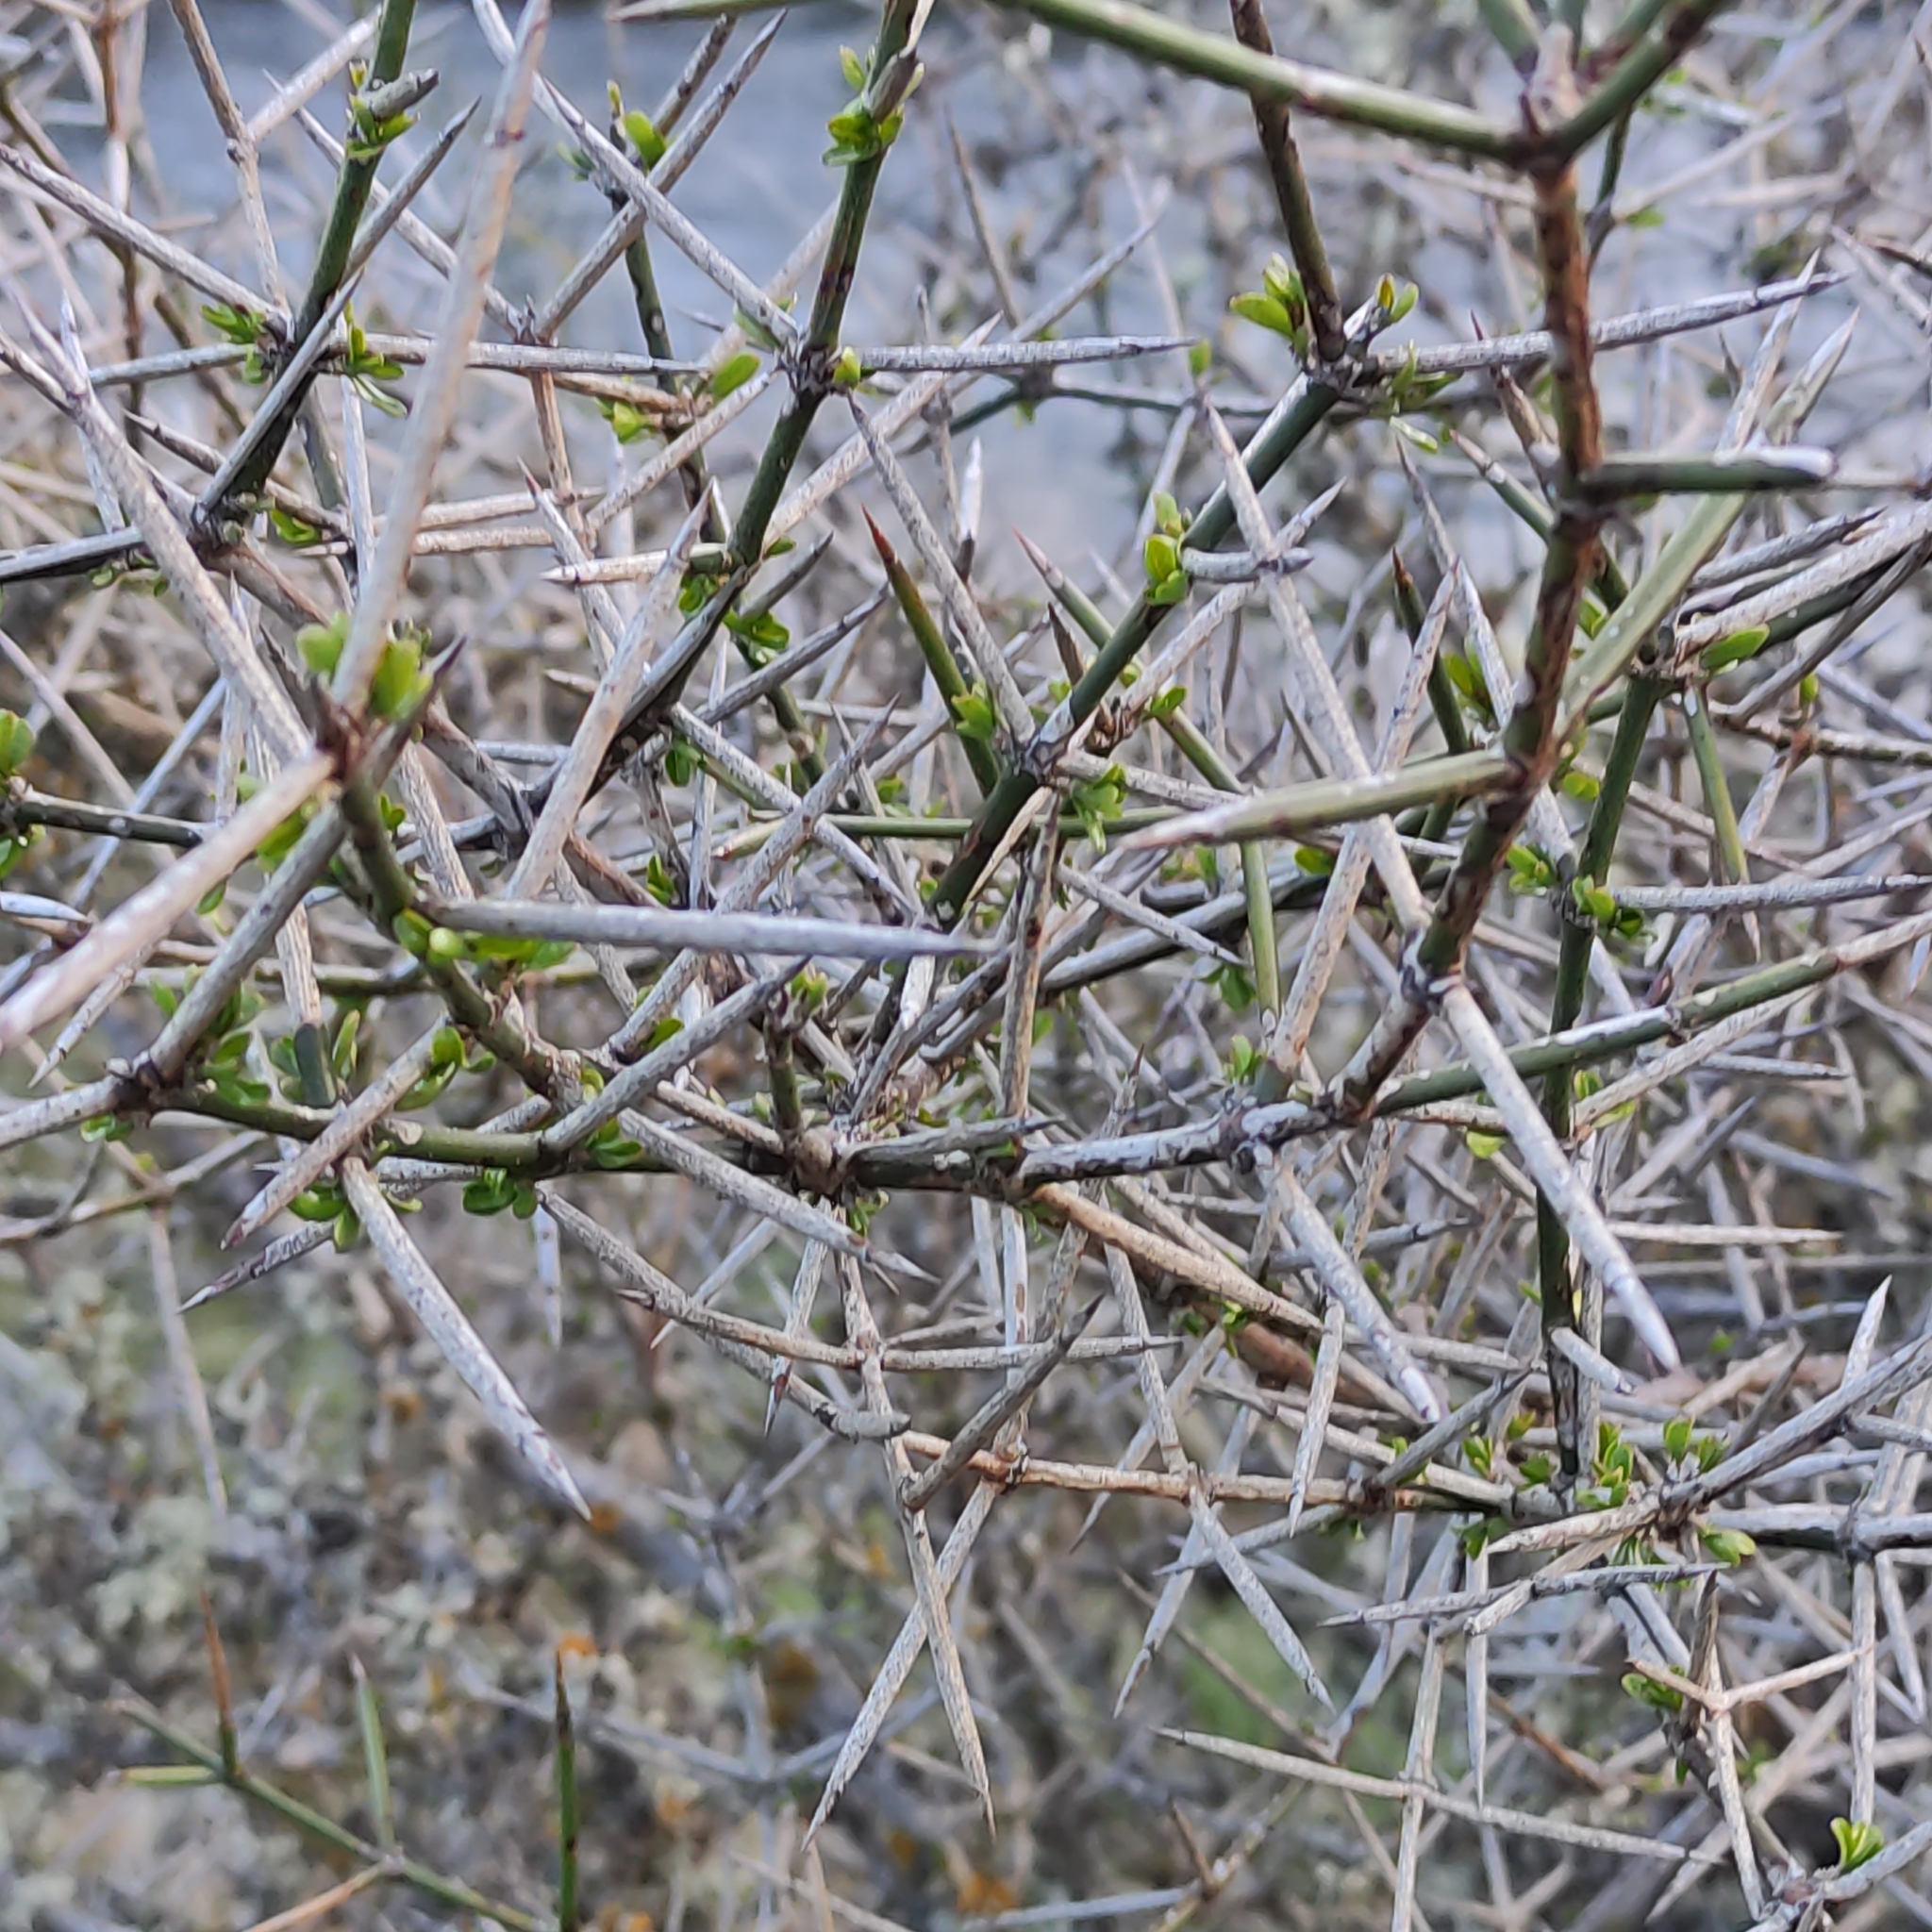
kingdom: Plantae
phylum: Tracheophyta
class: Magnoliopsida
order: Rosales
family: Rhamnaceae
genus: Discaria
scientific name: Discaria toumatou
